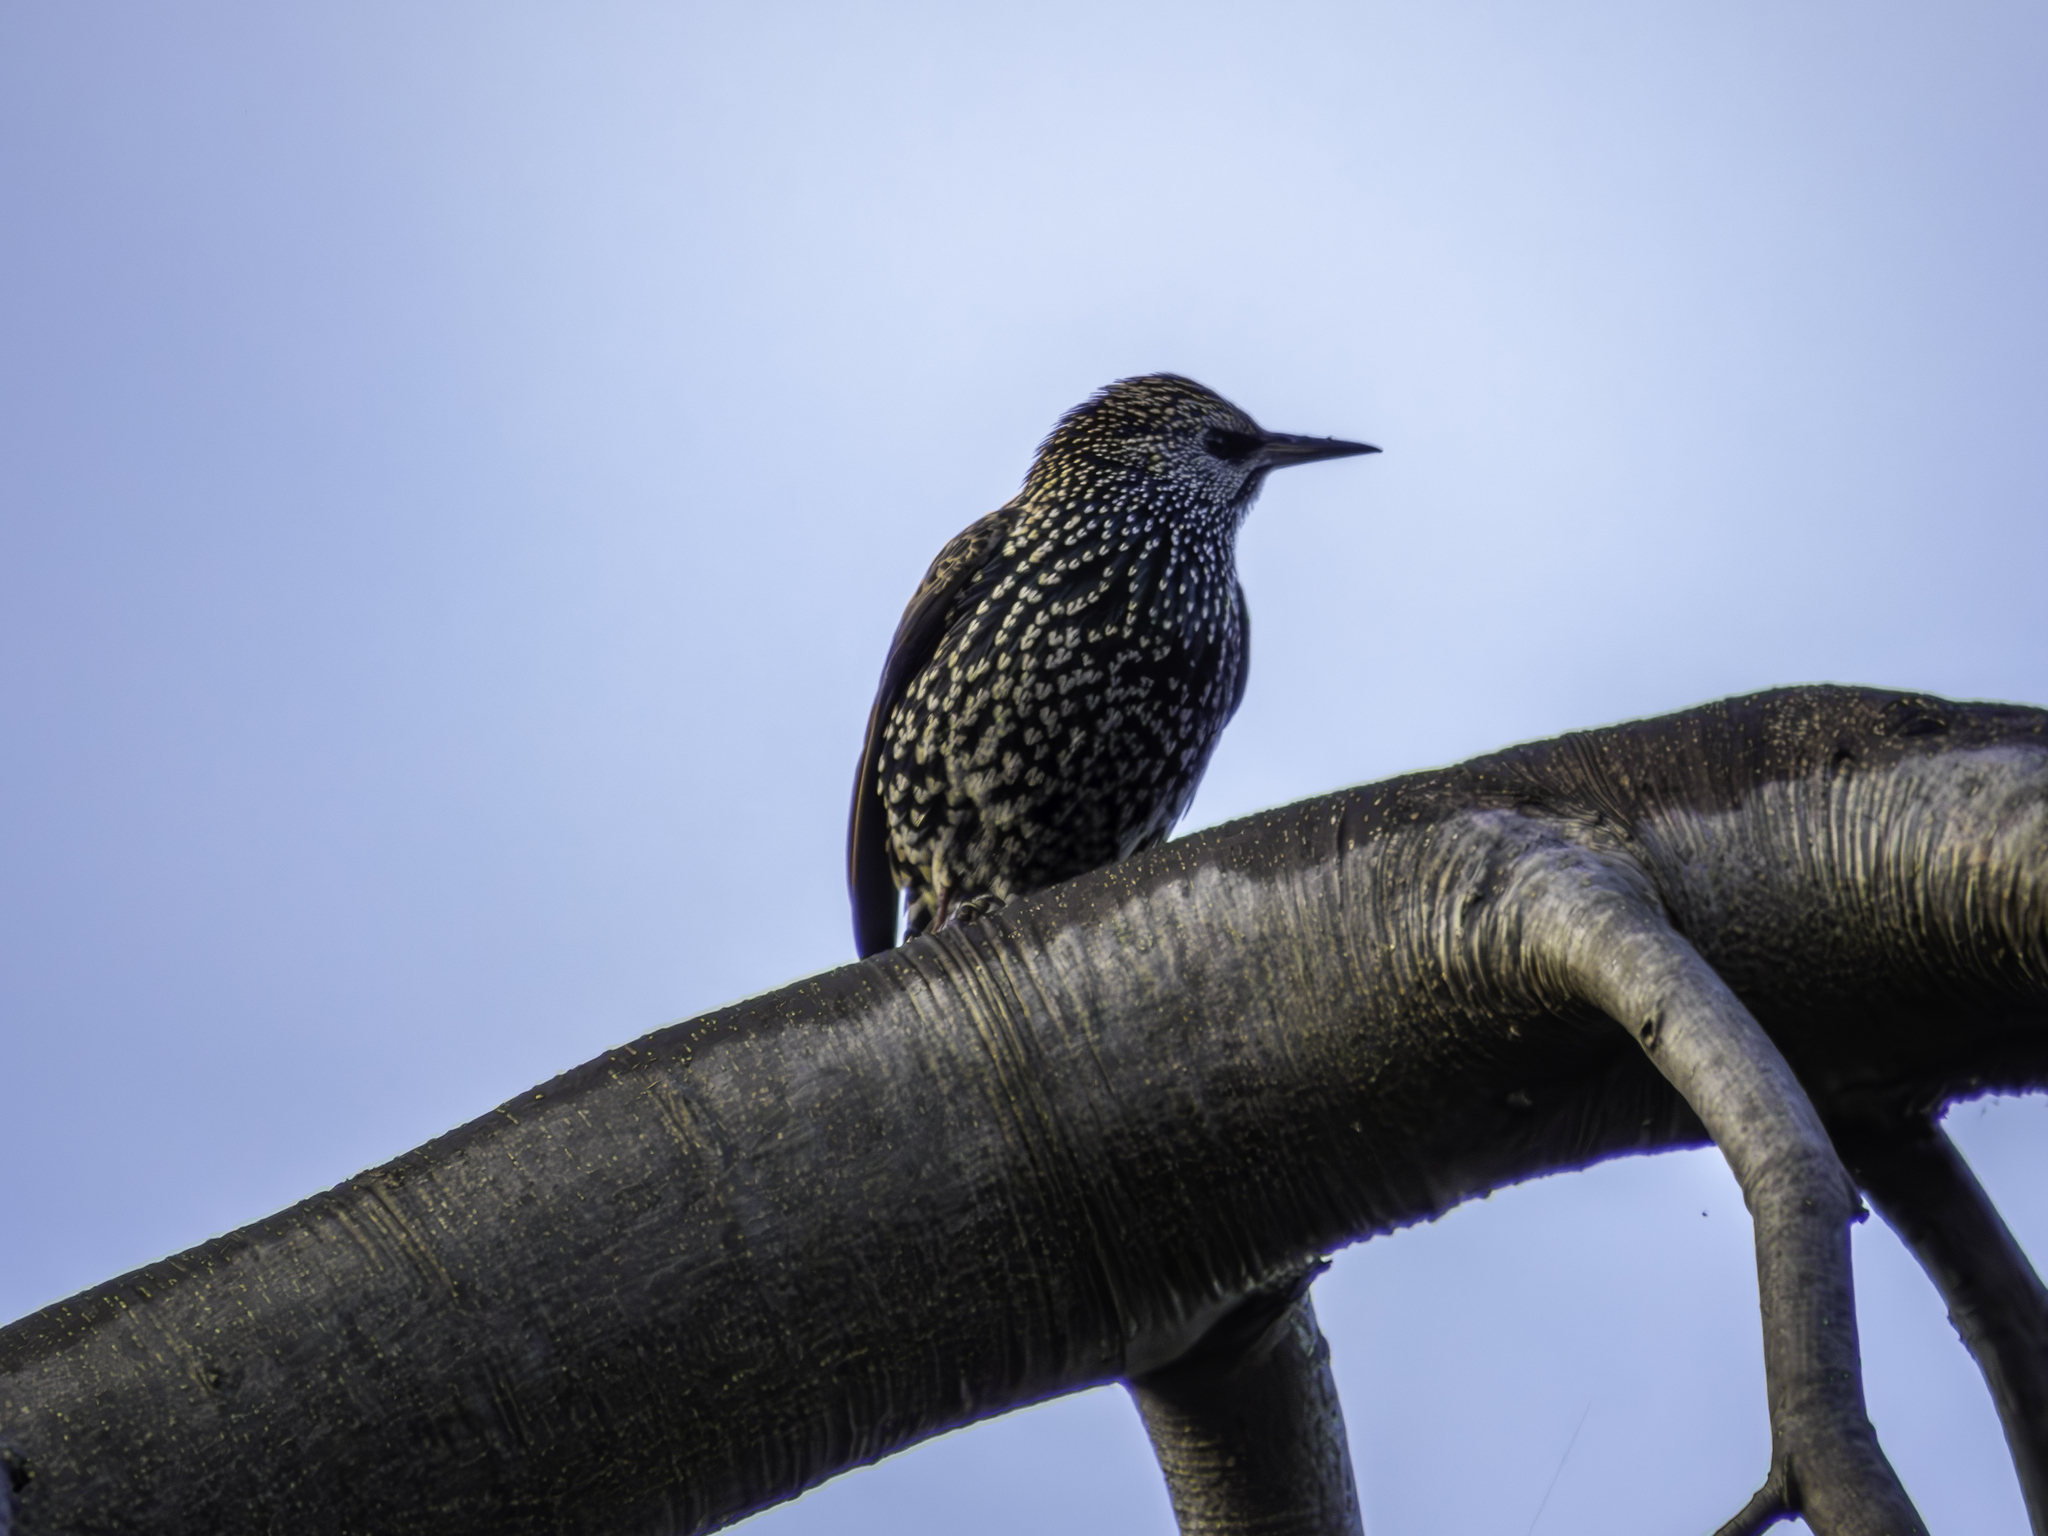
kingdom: Animalia
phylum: Chordata
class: Aves
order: Passeriformes
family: Sturnidae
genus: Sturnus
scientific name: Sturnus vulgaris
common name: Common starling
